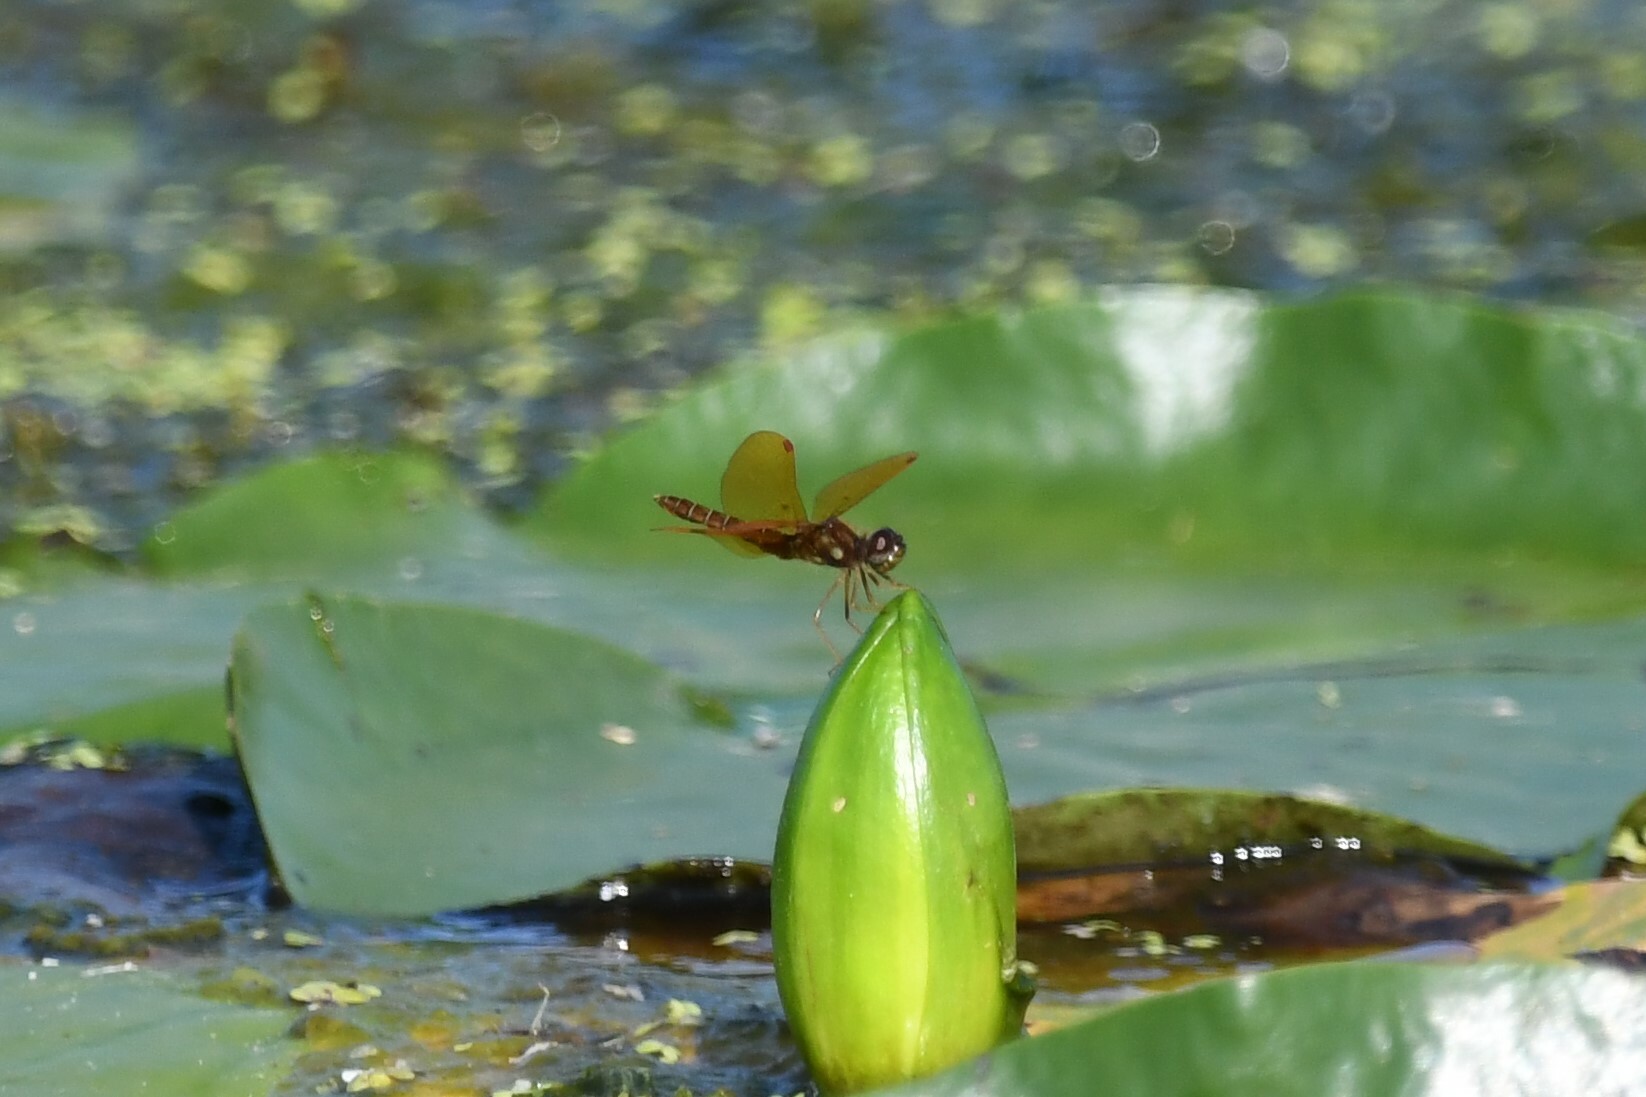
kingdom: Animalia
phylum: Arthropoda
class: Insecta
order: Odonata
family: Libellulidae
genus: Perithemis
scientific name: Perithemis tenera
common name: Eastern amberwing
